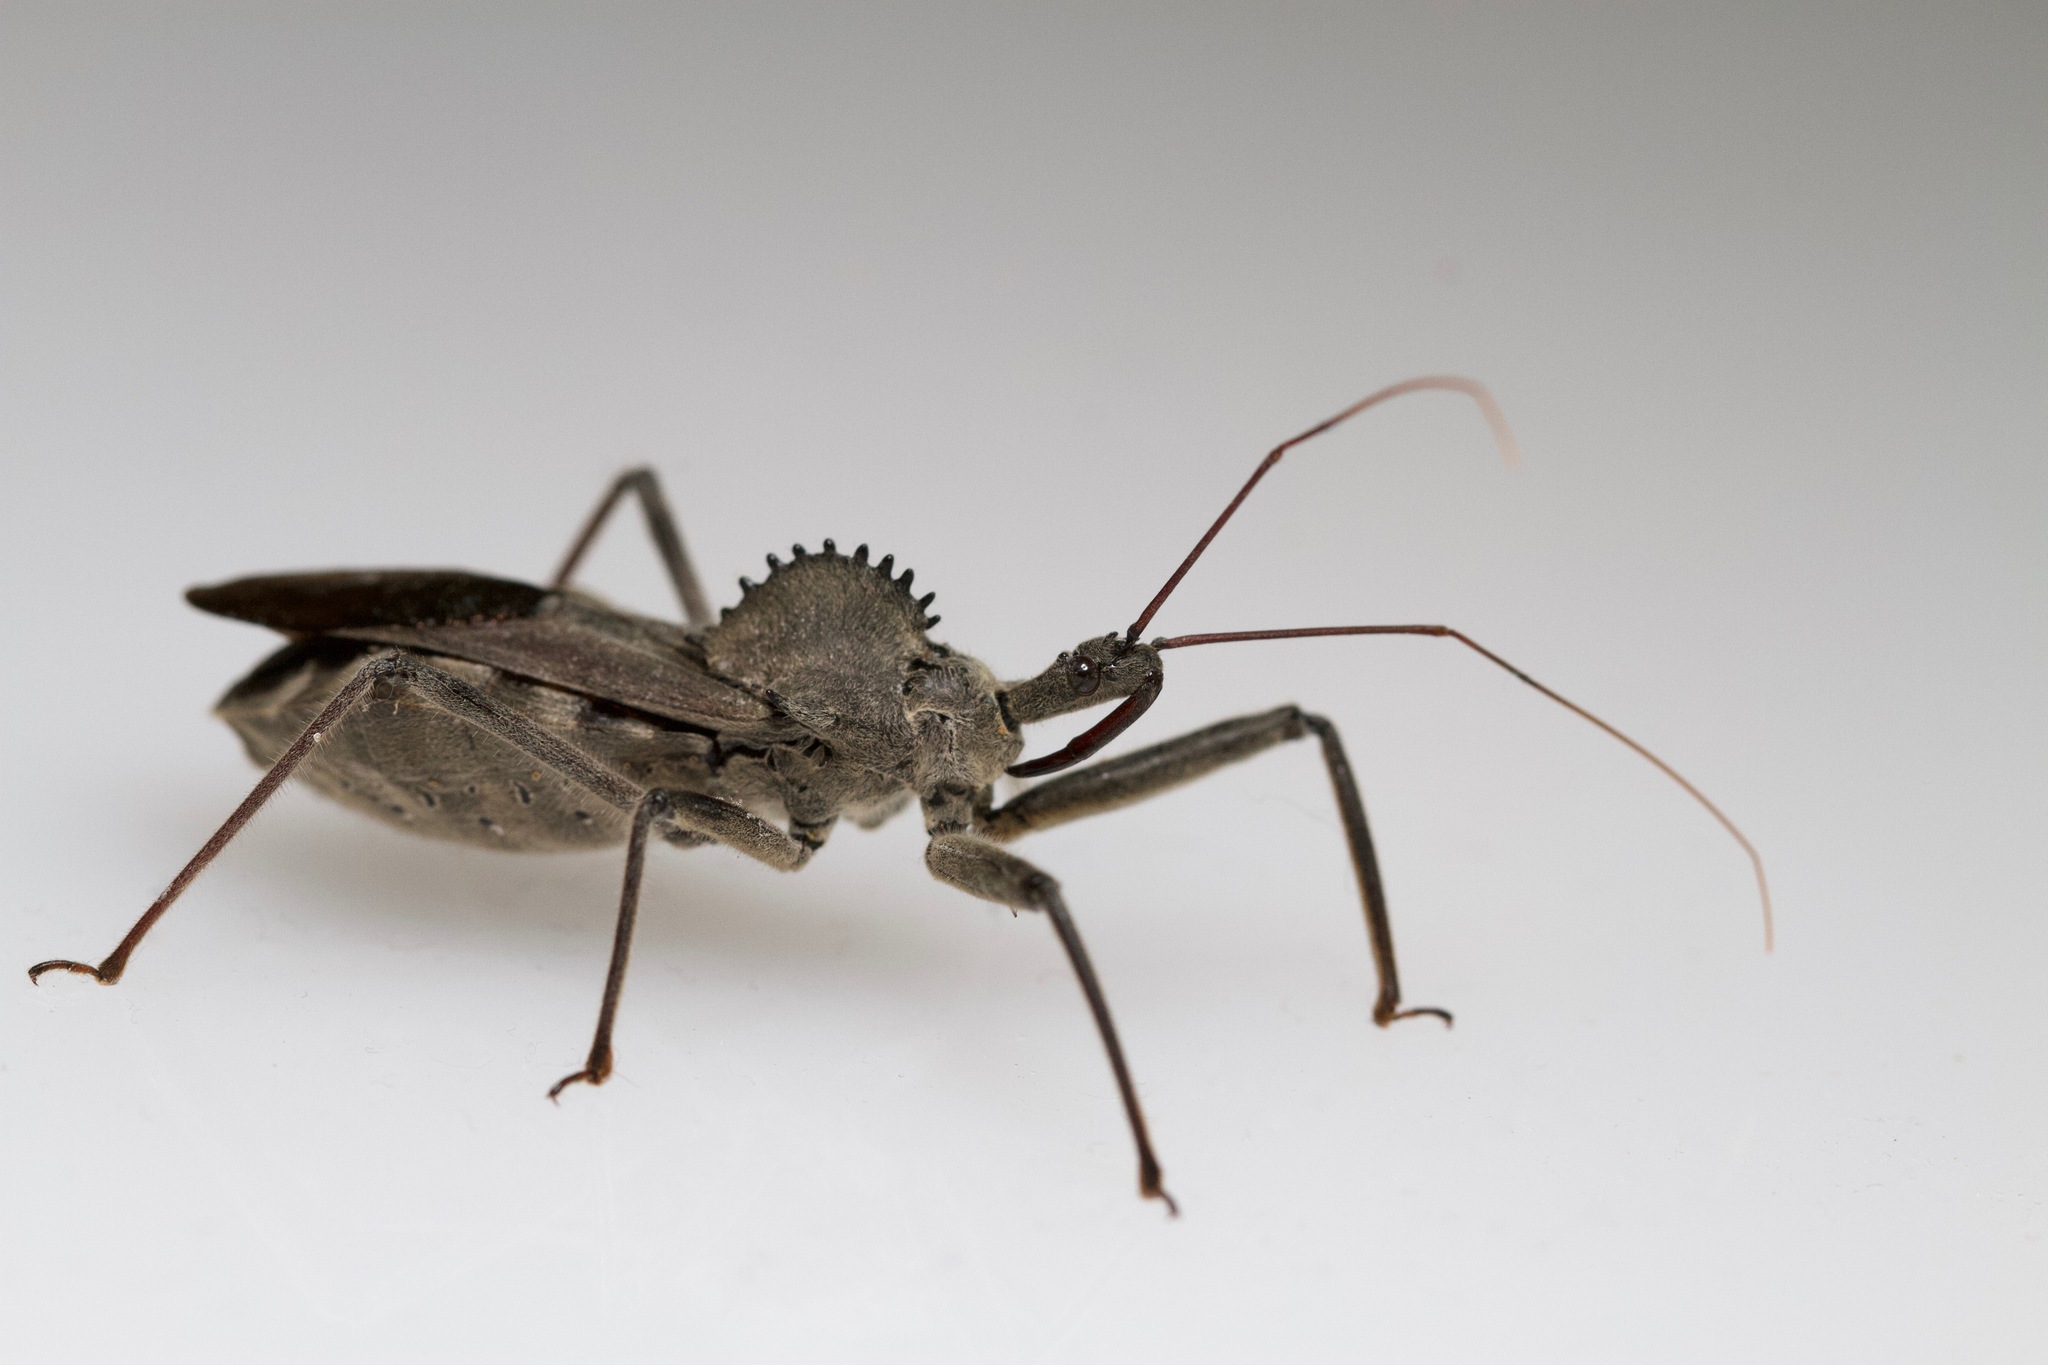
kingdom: Animalia
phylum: Arthropoda
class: Insecta
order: Hemiptera
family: Reduviidae
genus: Arilus
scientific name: Arilus cristatus
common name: North american wheel bug
